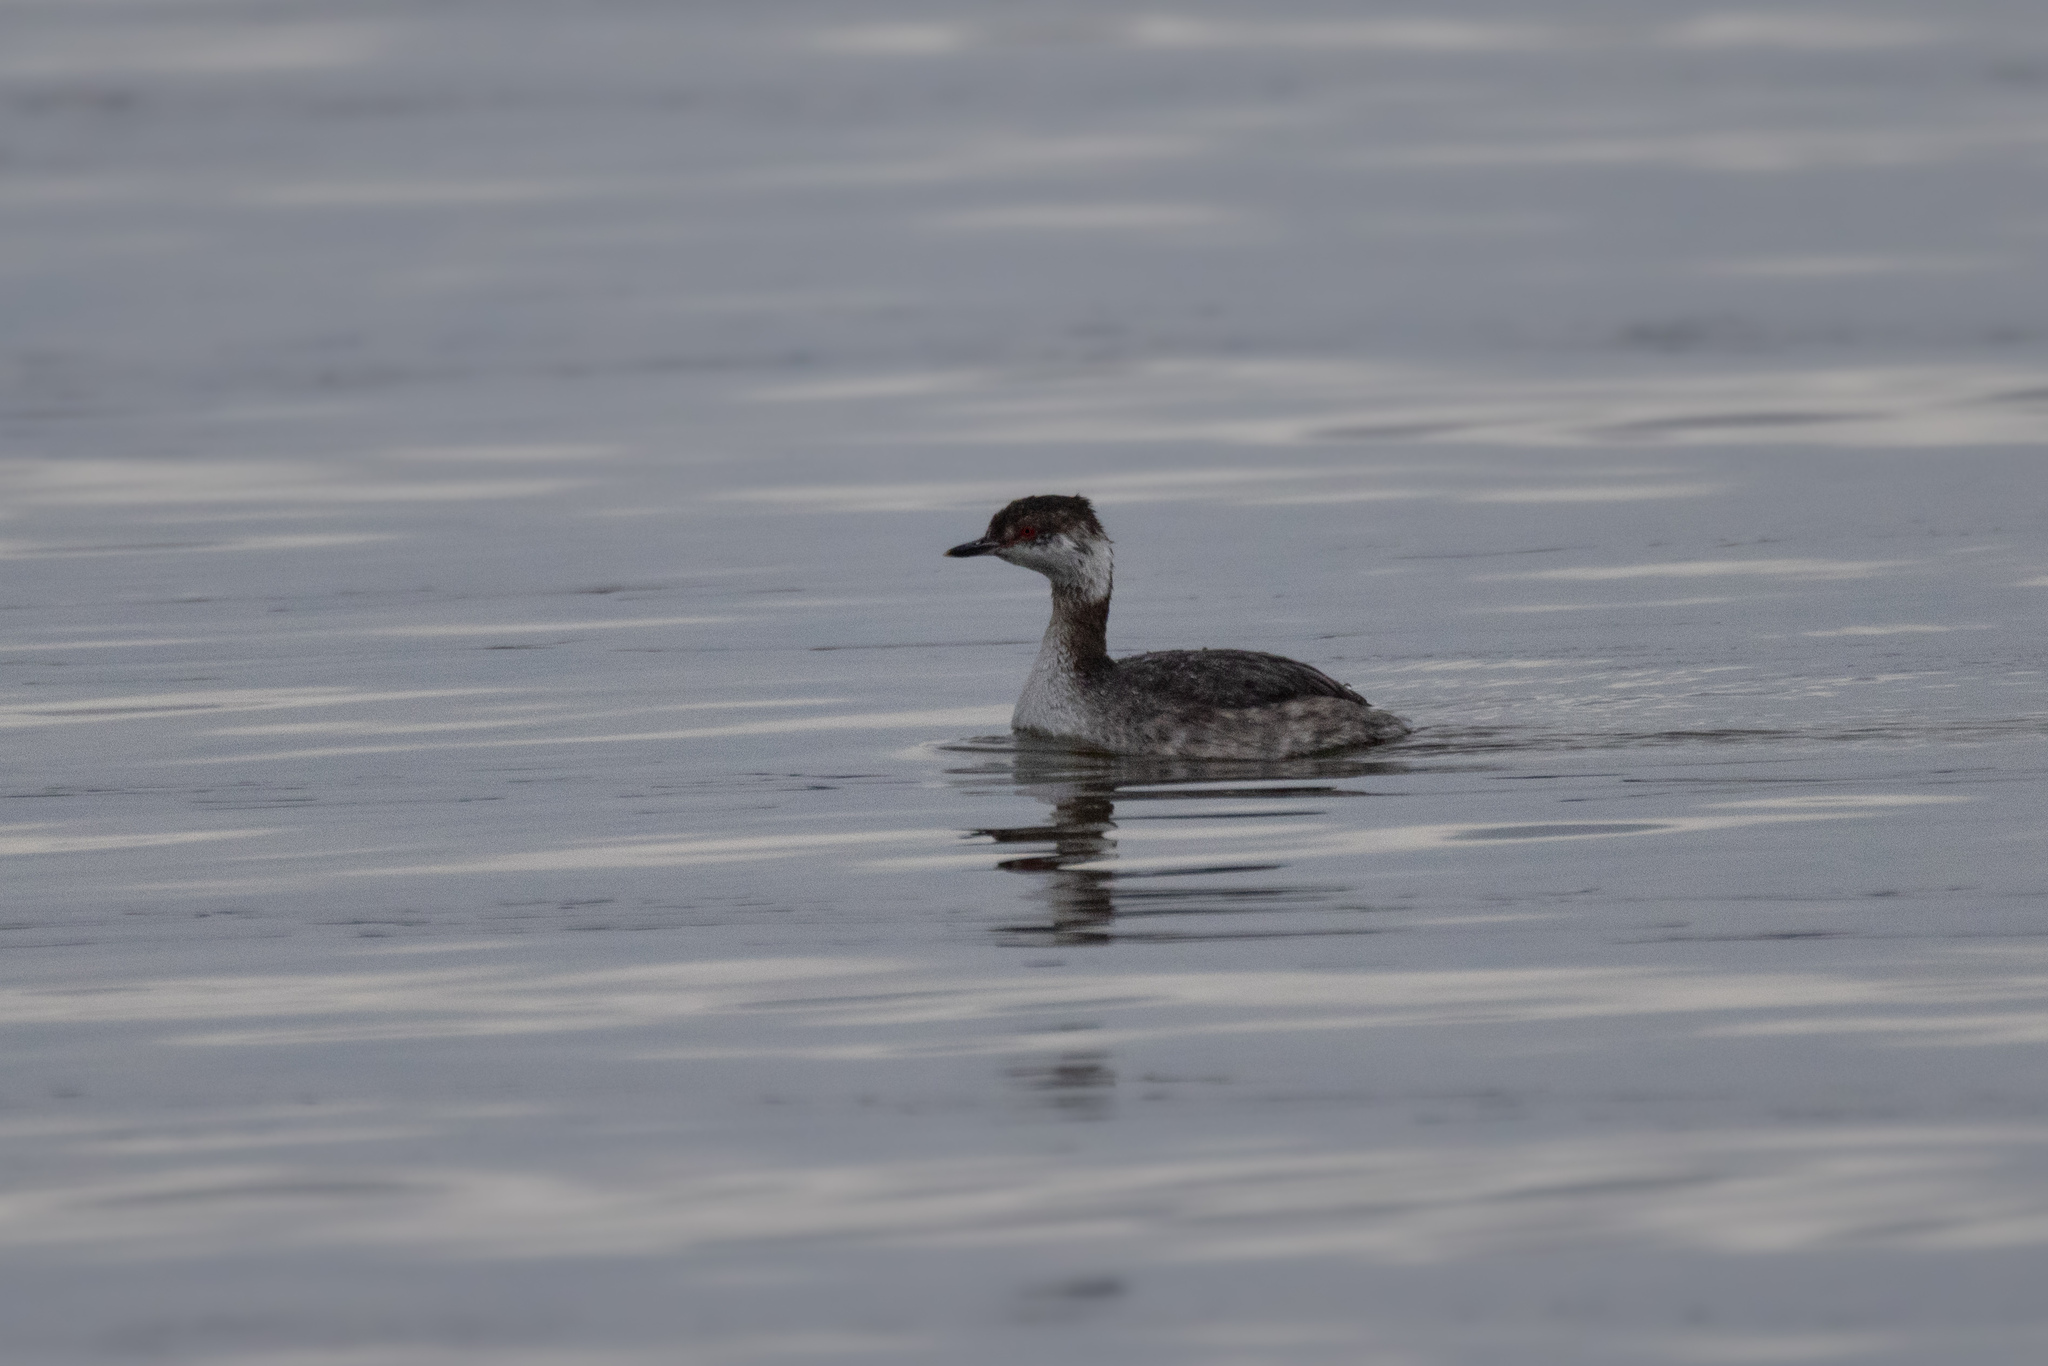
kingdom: Animalia
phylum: Chordata
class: Aves
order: Podicipediformes
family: Podicipedidae
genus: Podiceps
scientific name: Podiceps auritus
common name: Horned grebe
